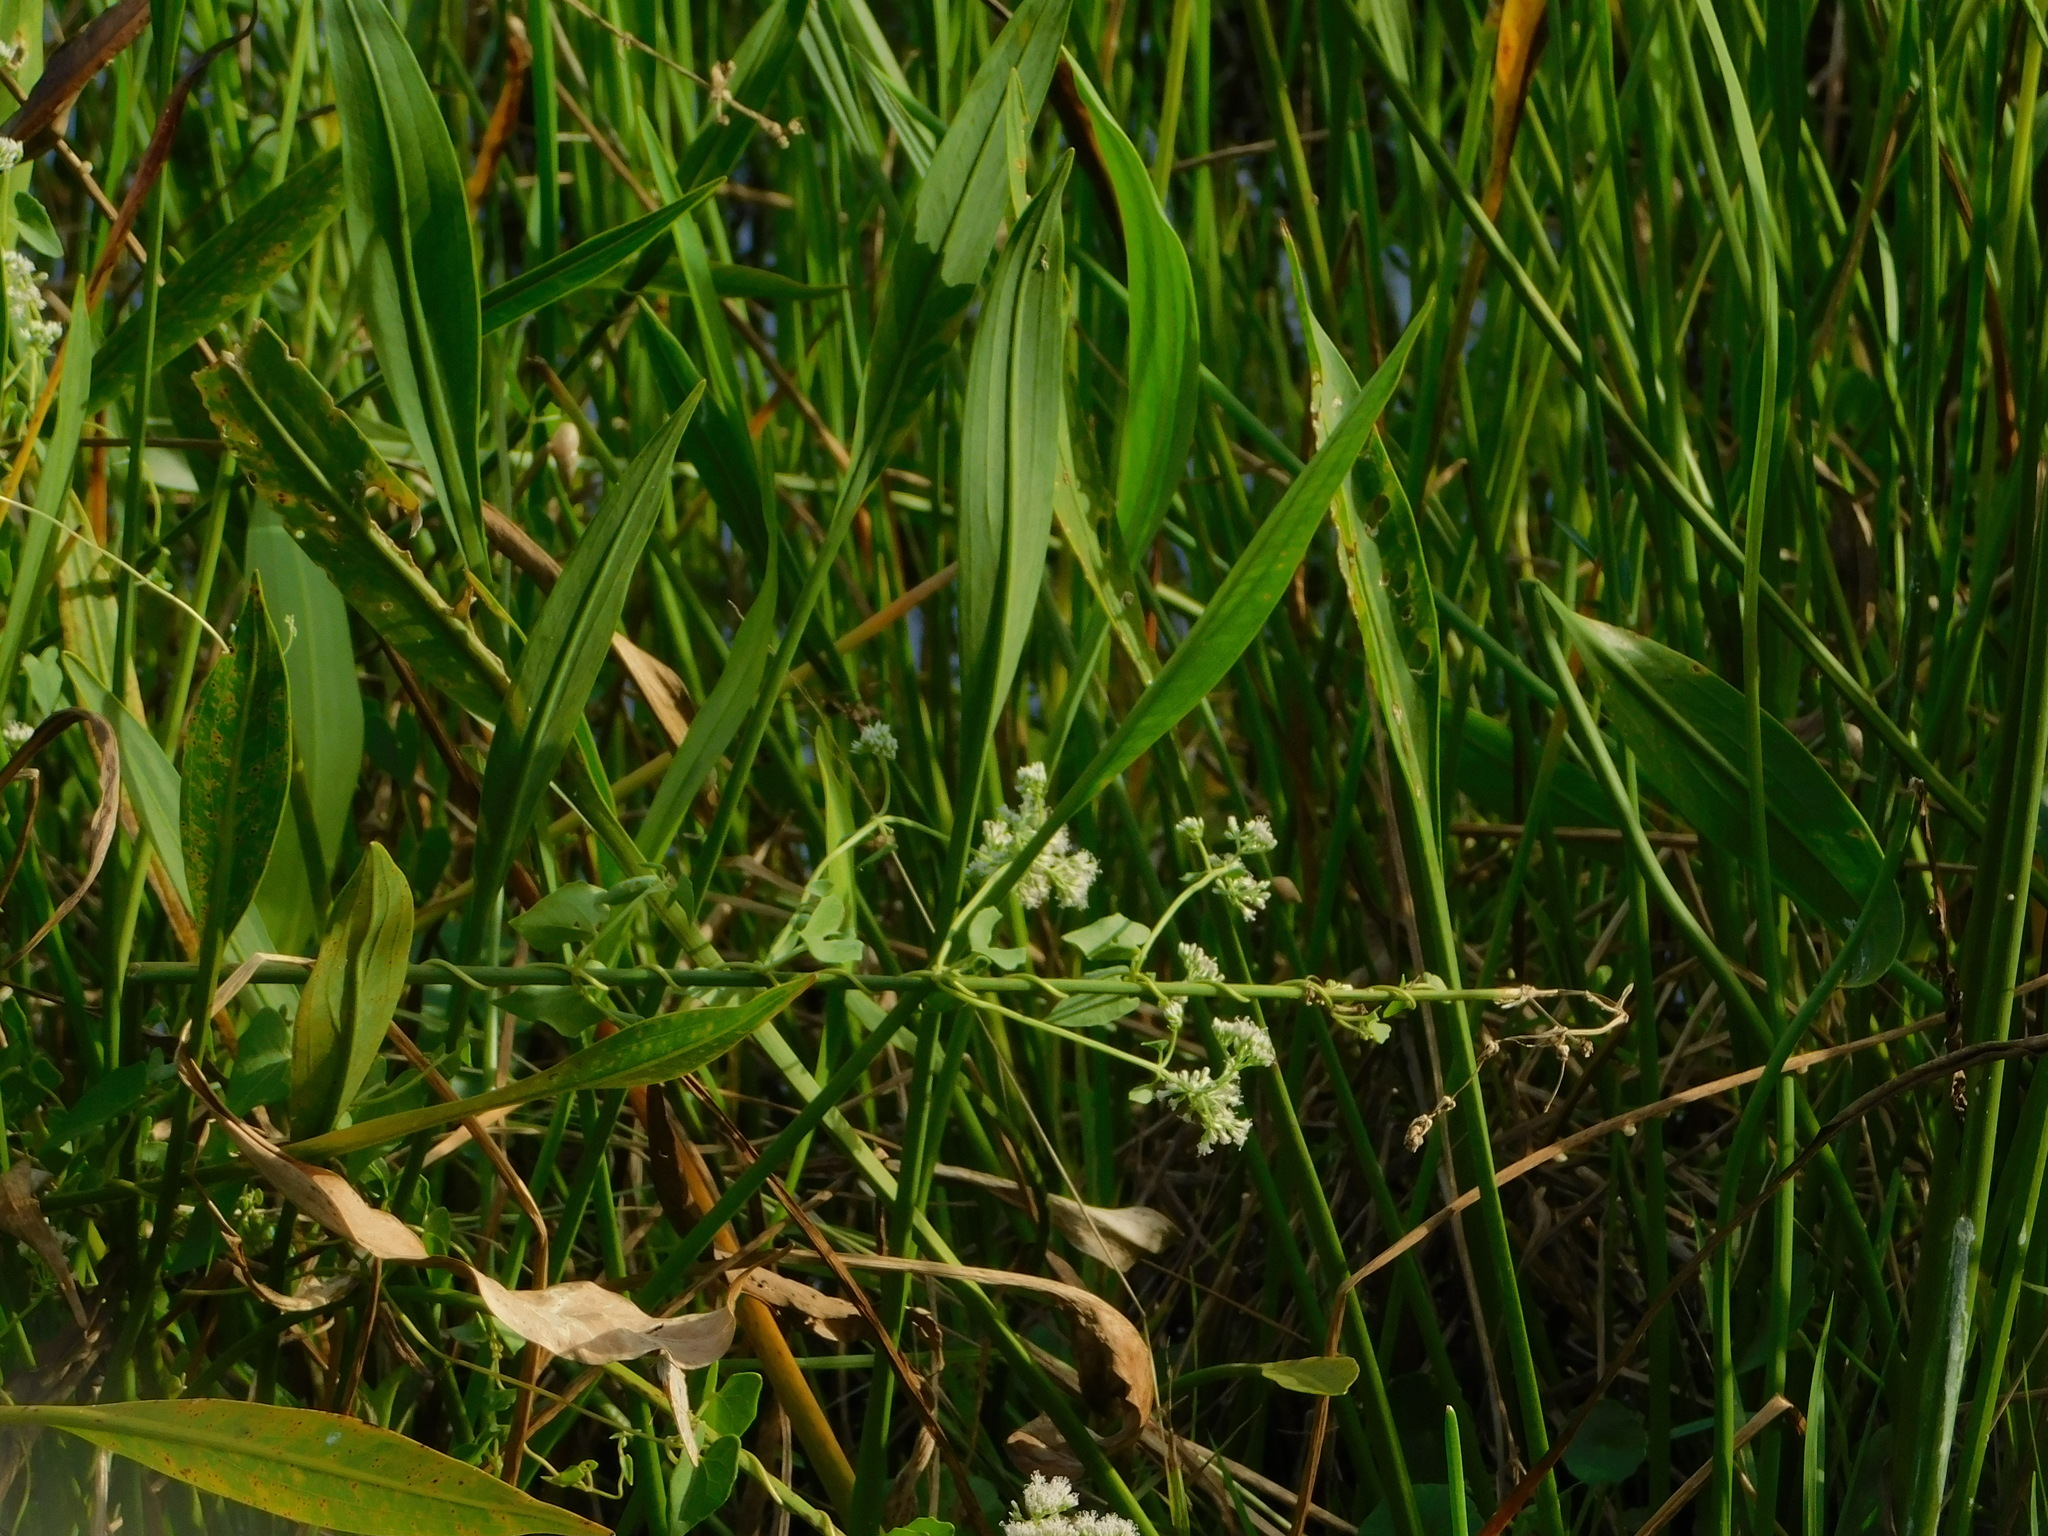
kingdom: Plantae
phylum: Tracheophyta
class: Magnoliopsida
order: Asterales
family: Asteraceae
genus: Mikania
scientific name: Mikania scandens
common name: Climbing hempvine
